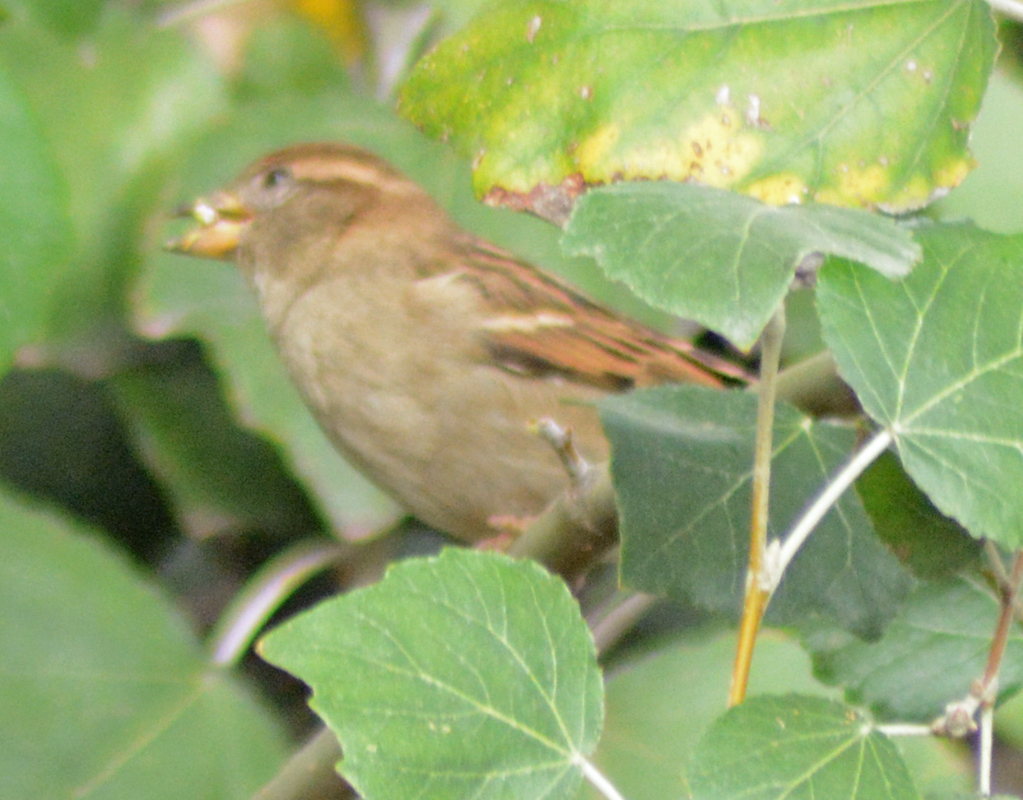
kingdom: Animalia
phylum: Chordata
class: Aves
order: Passeriformes
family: Passeridae
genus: Passer
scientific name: Passer domesticus
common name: House sparrow
